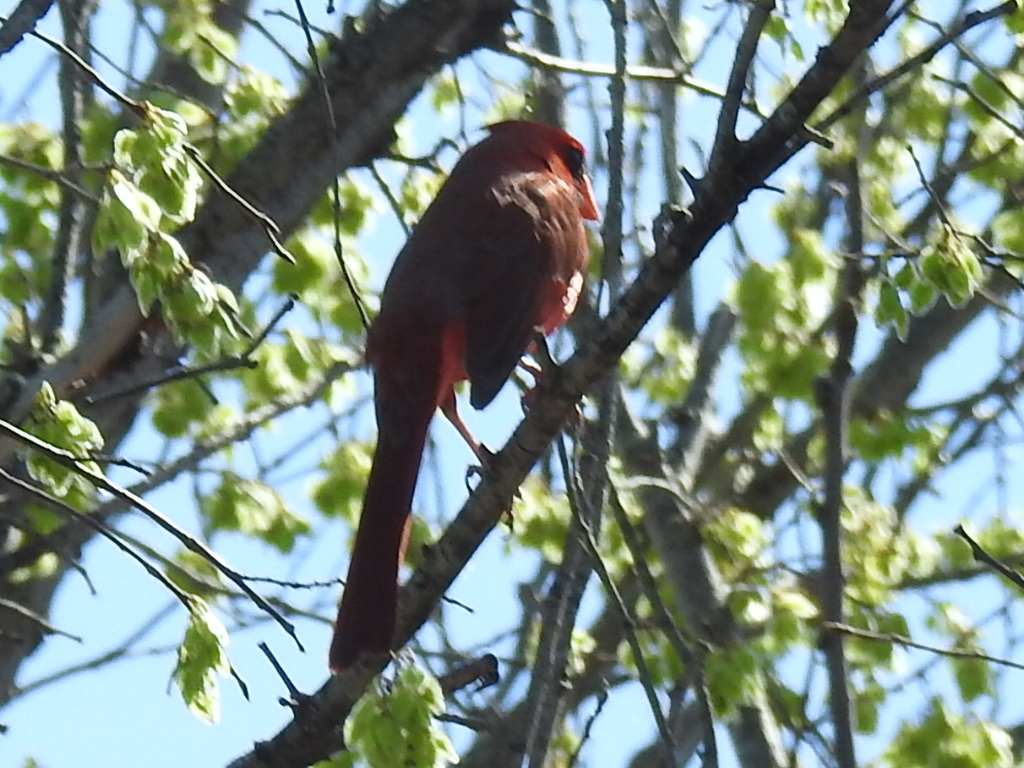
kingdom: Animalia
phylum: Chordata
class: Aves
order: Passeriformes
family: Cardinalidae
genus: Cardinalis
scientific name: Cardinalis cardinalis
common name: Northern cardinal
